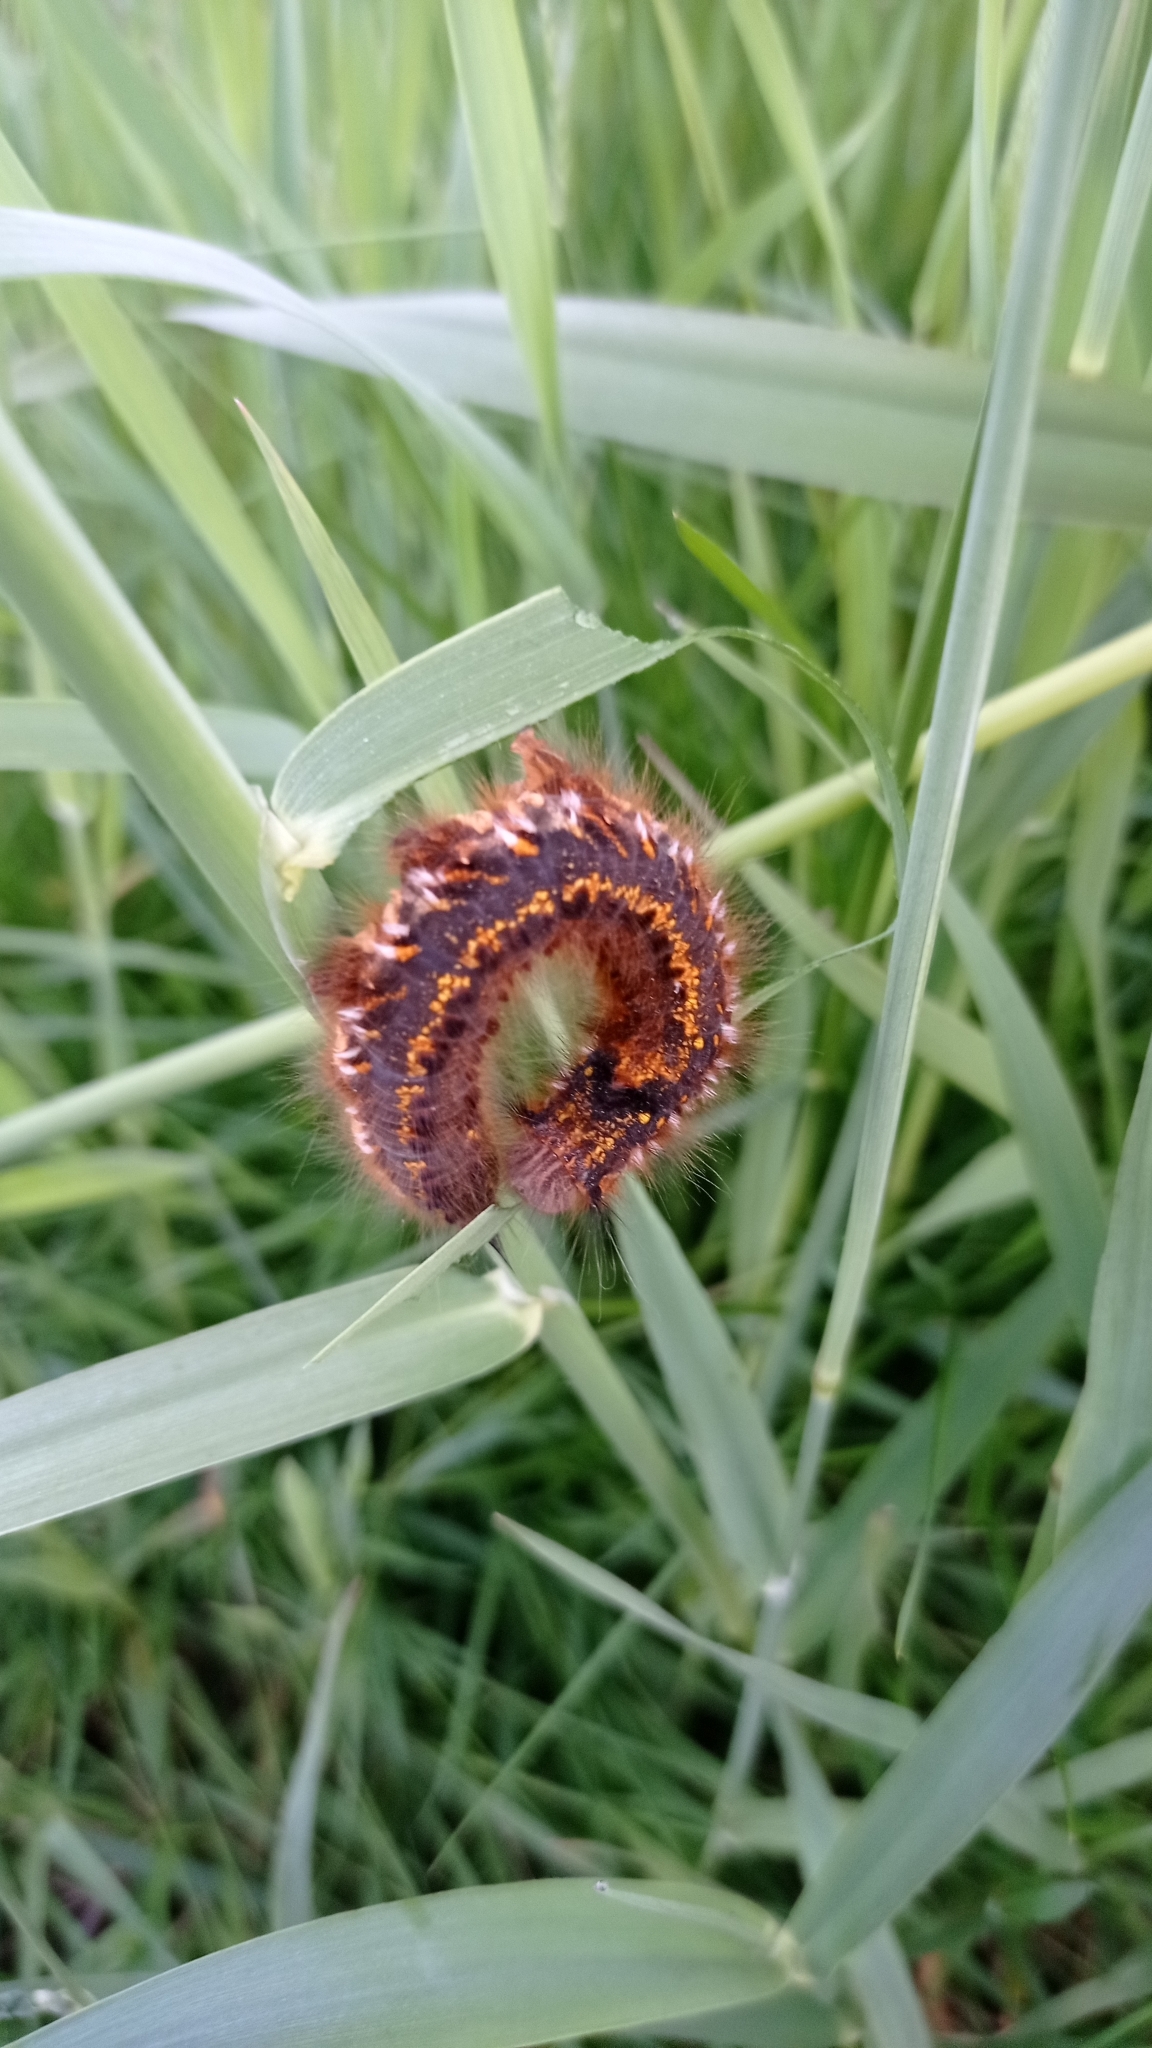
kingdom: Animalia
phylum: Arthropoda
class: Insecta
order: Lepidoptera
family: Lasiocampidae
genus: Euthrix
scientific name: Euthrix potatoria
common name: Drinker
